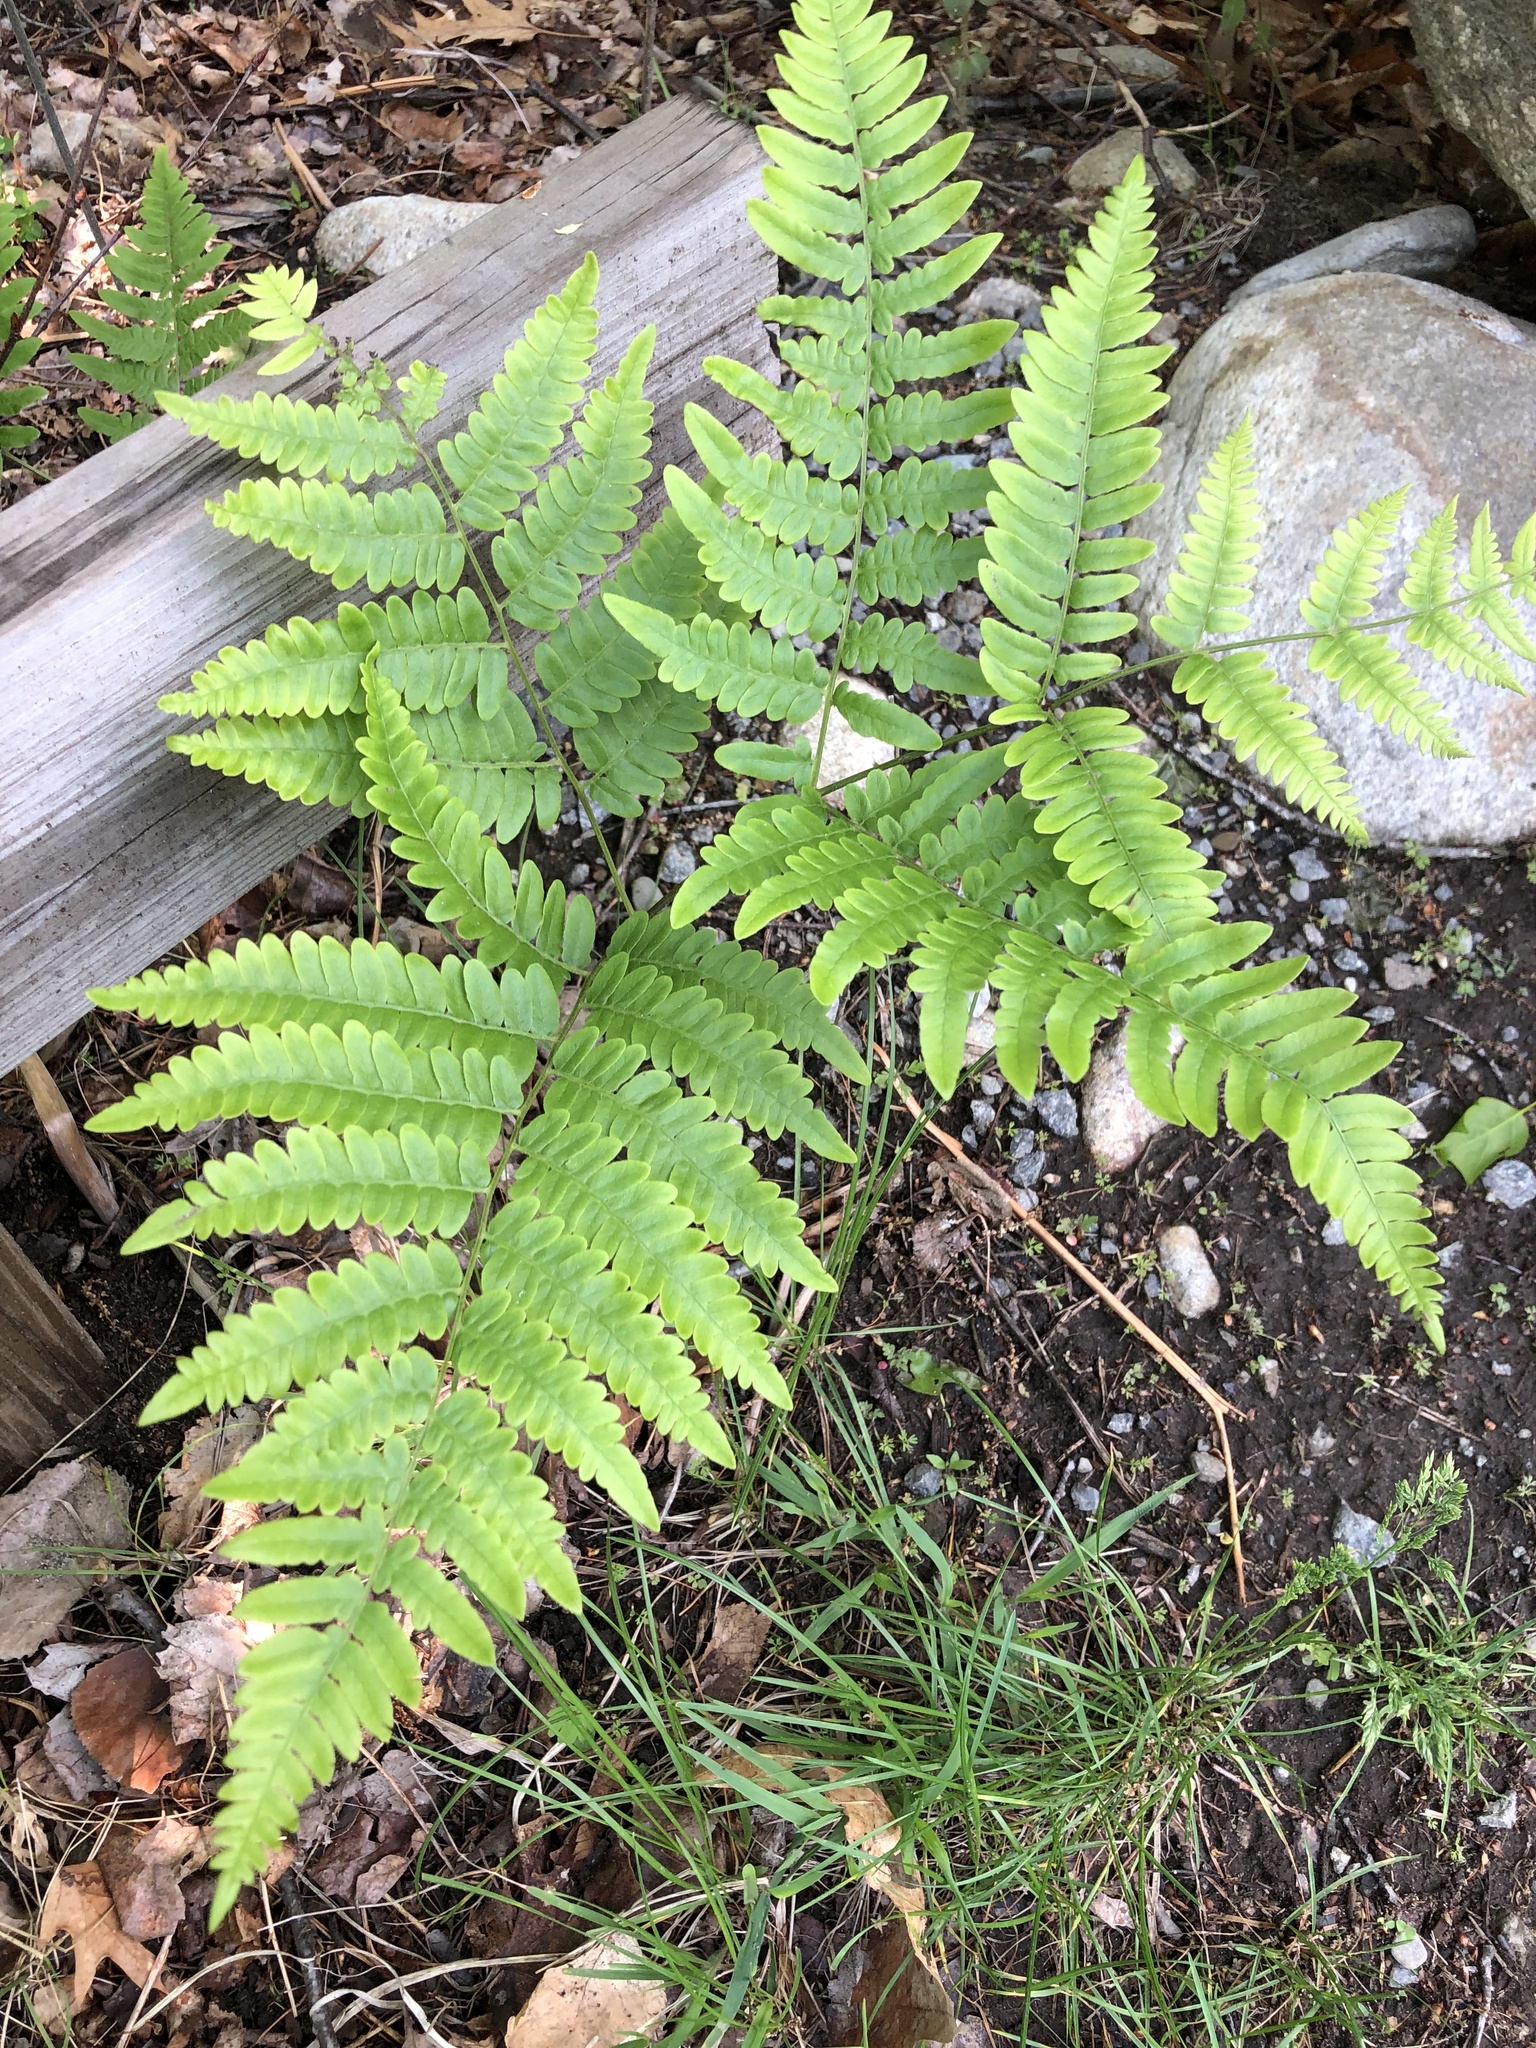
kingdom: Plantae
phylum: Tracheophyta
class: Polypodiopsida
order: Polypodiales
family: Dennstaedtiaceae
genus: Pteridium
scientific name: Pteridium aquilinum
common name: Bracken
